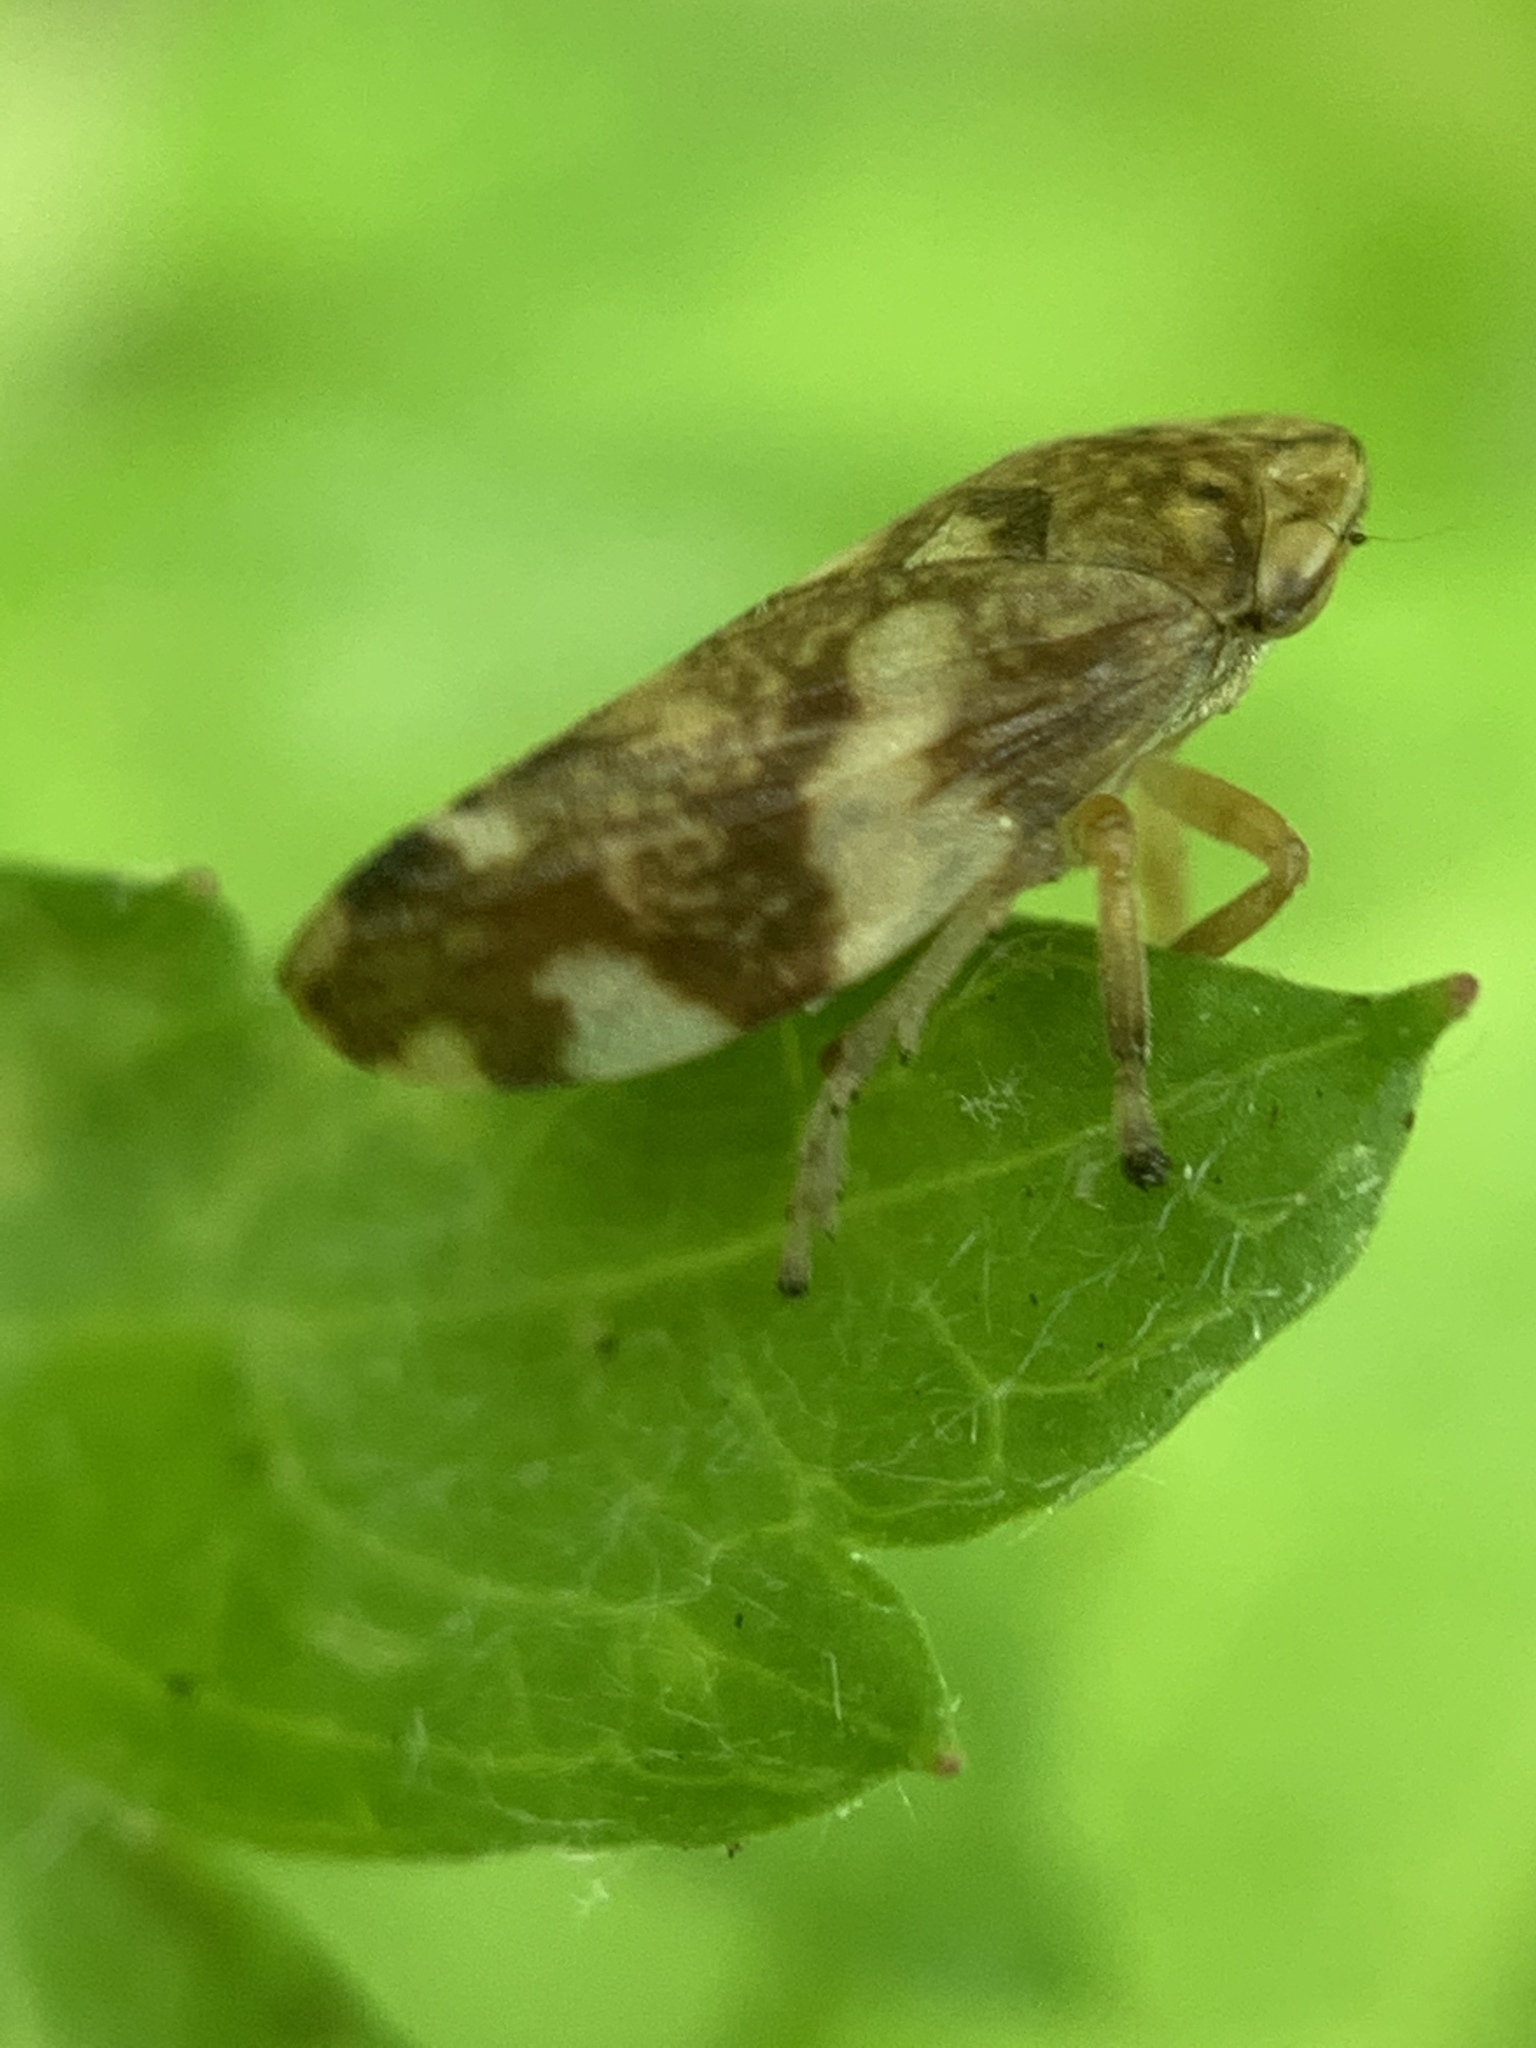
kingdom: Animalia
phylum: Arthropoda
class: Insecta
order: Hemiptera
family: Aphrophoridae
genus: Philaenus
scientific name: Philaenus spumarius
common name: Meadow spittlebug
